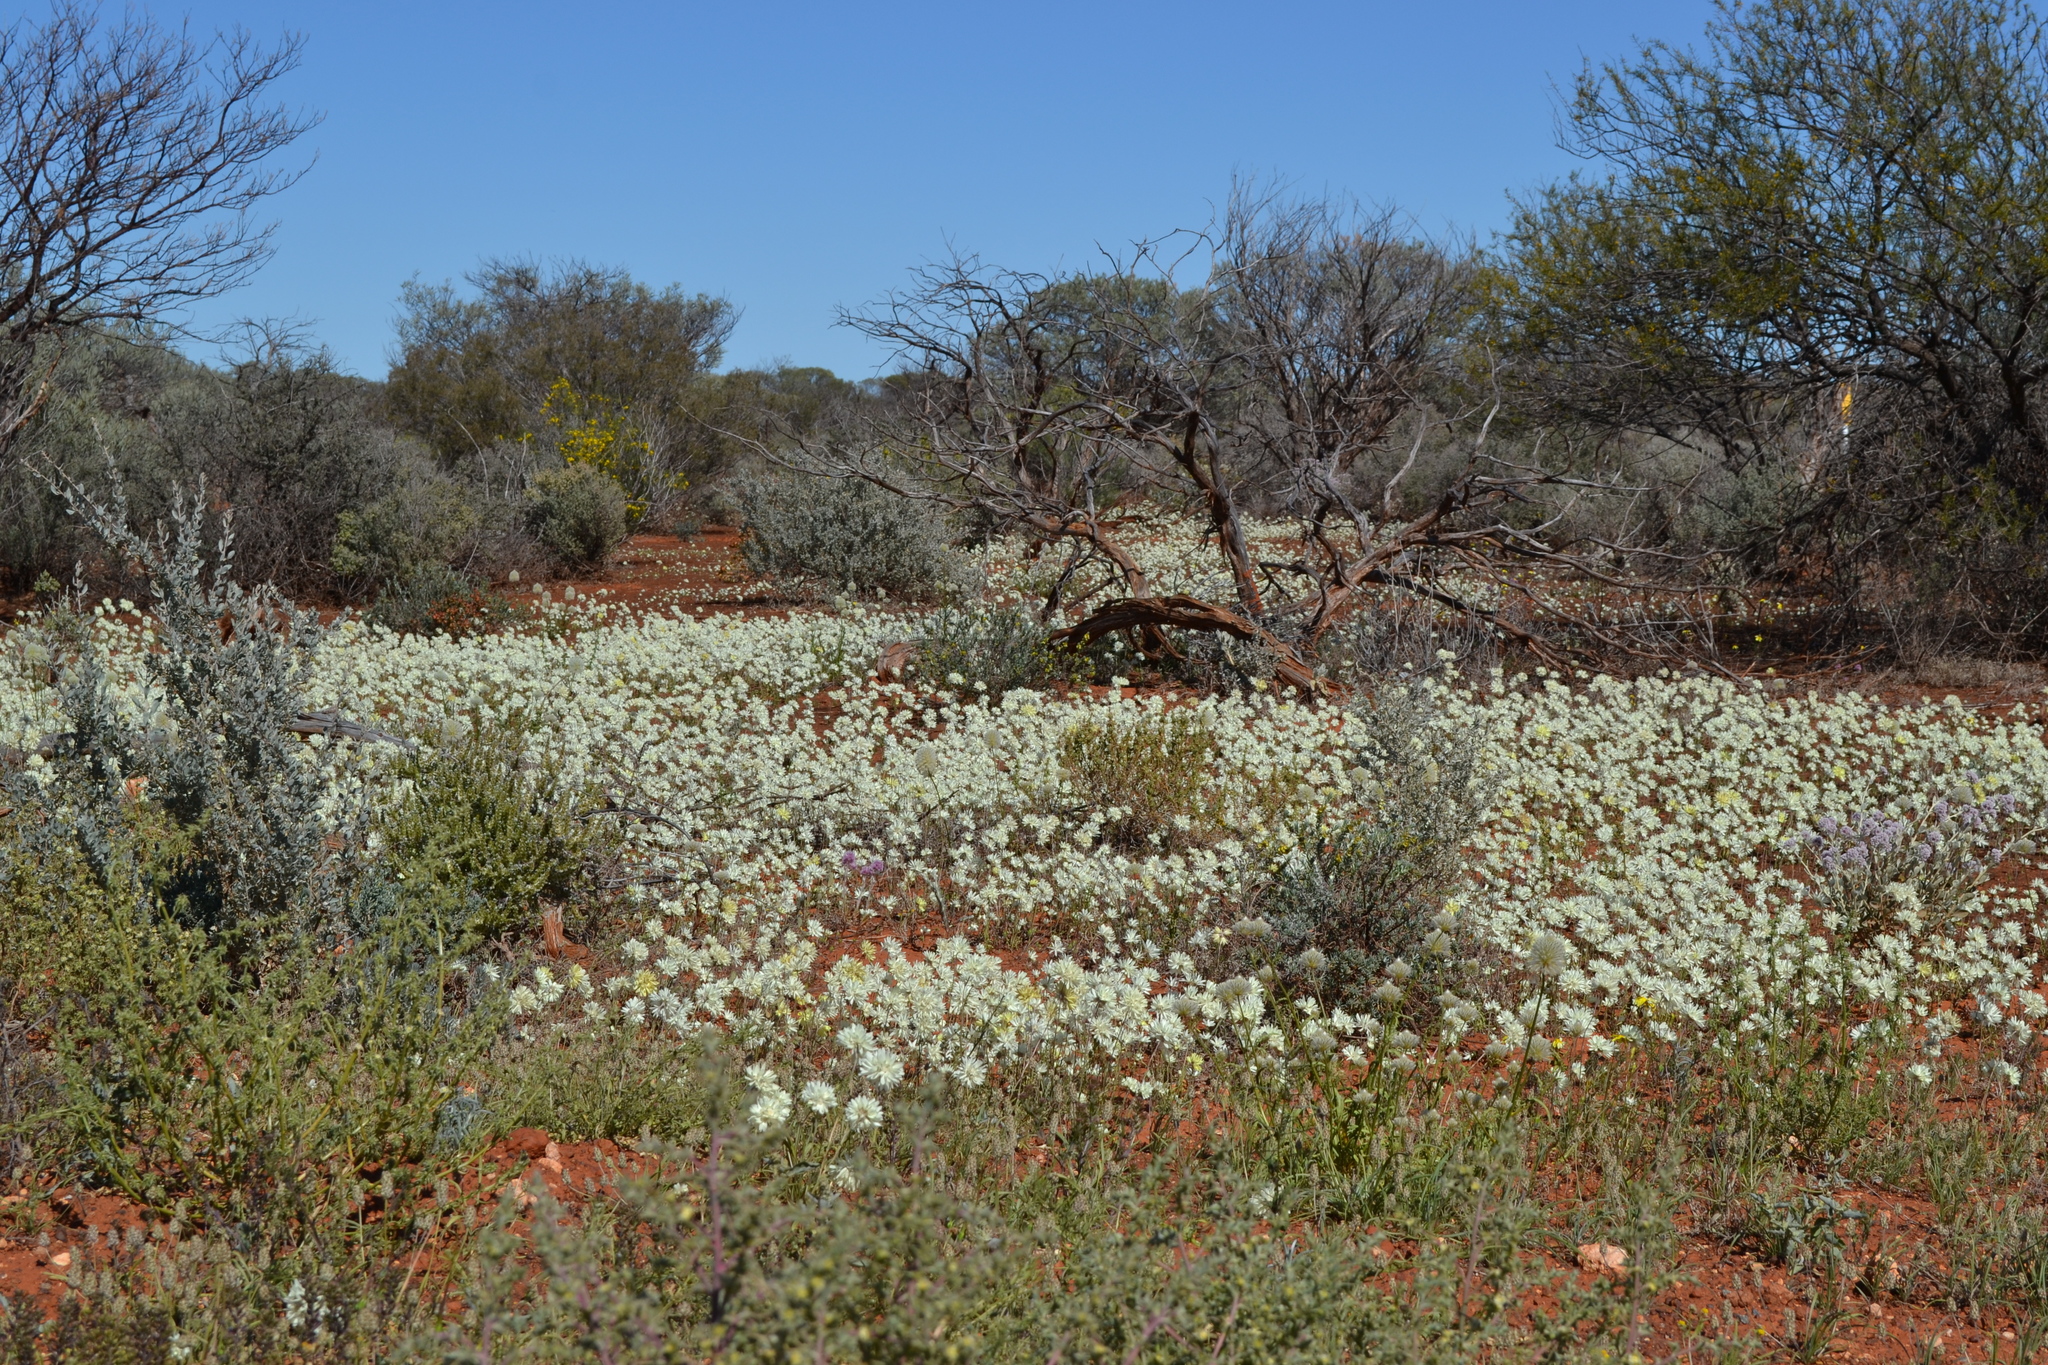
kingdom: Plantae
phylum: Tracheophyta
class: Magnoliopsida
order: Asterales
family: Asteraceae
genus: Cephalipterum
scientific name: Cephalipterum drummondii
